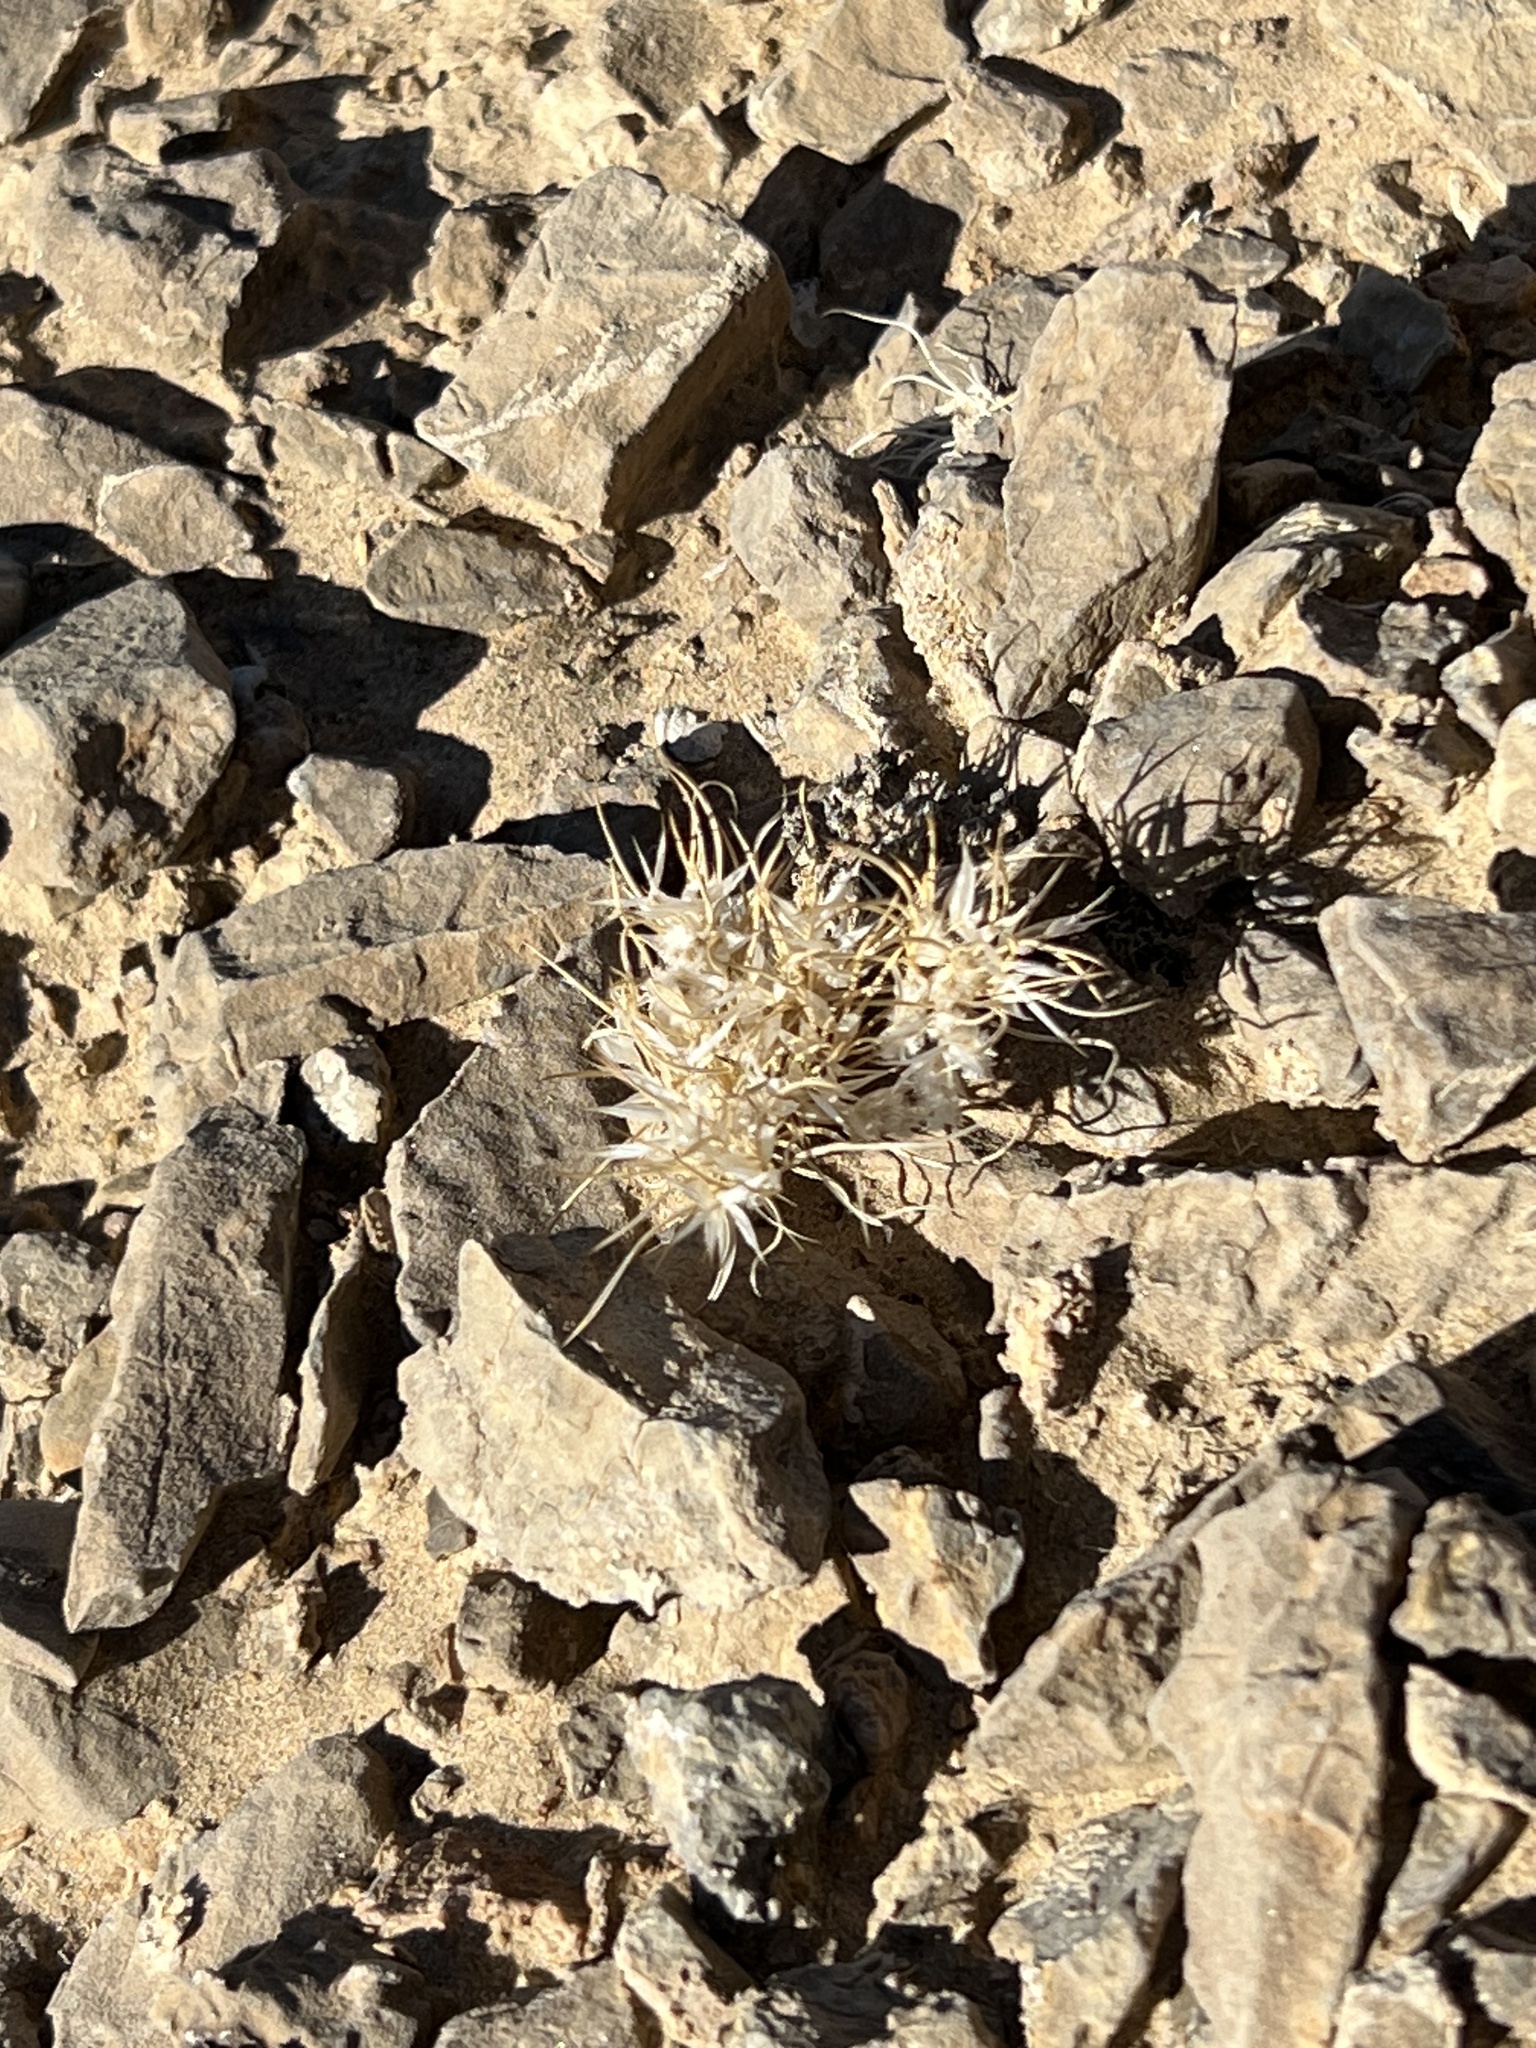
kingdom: Plantae
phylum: Tracheophyta
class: Liliopsida
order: Poales
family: Poaceae
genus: Dasyochloa
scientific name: Dasyochloa pulchella
